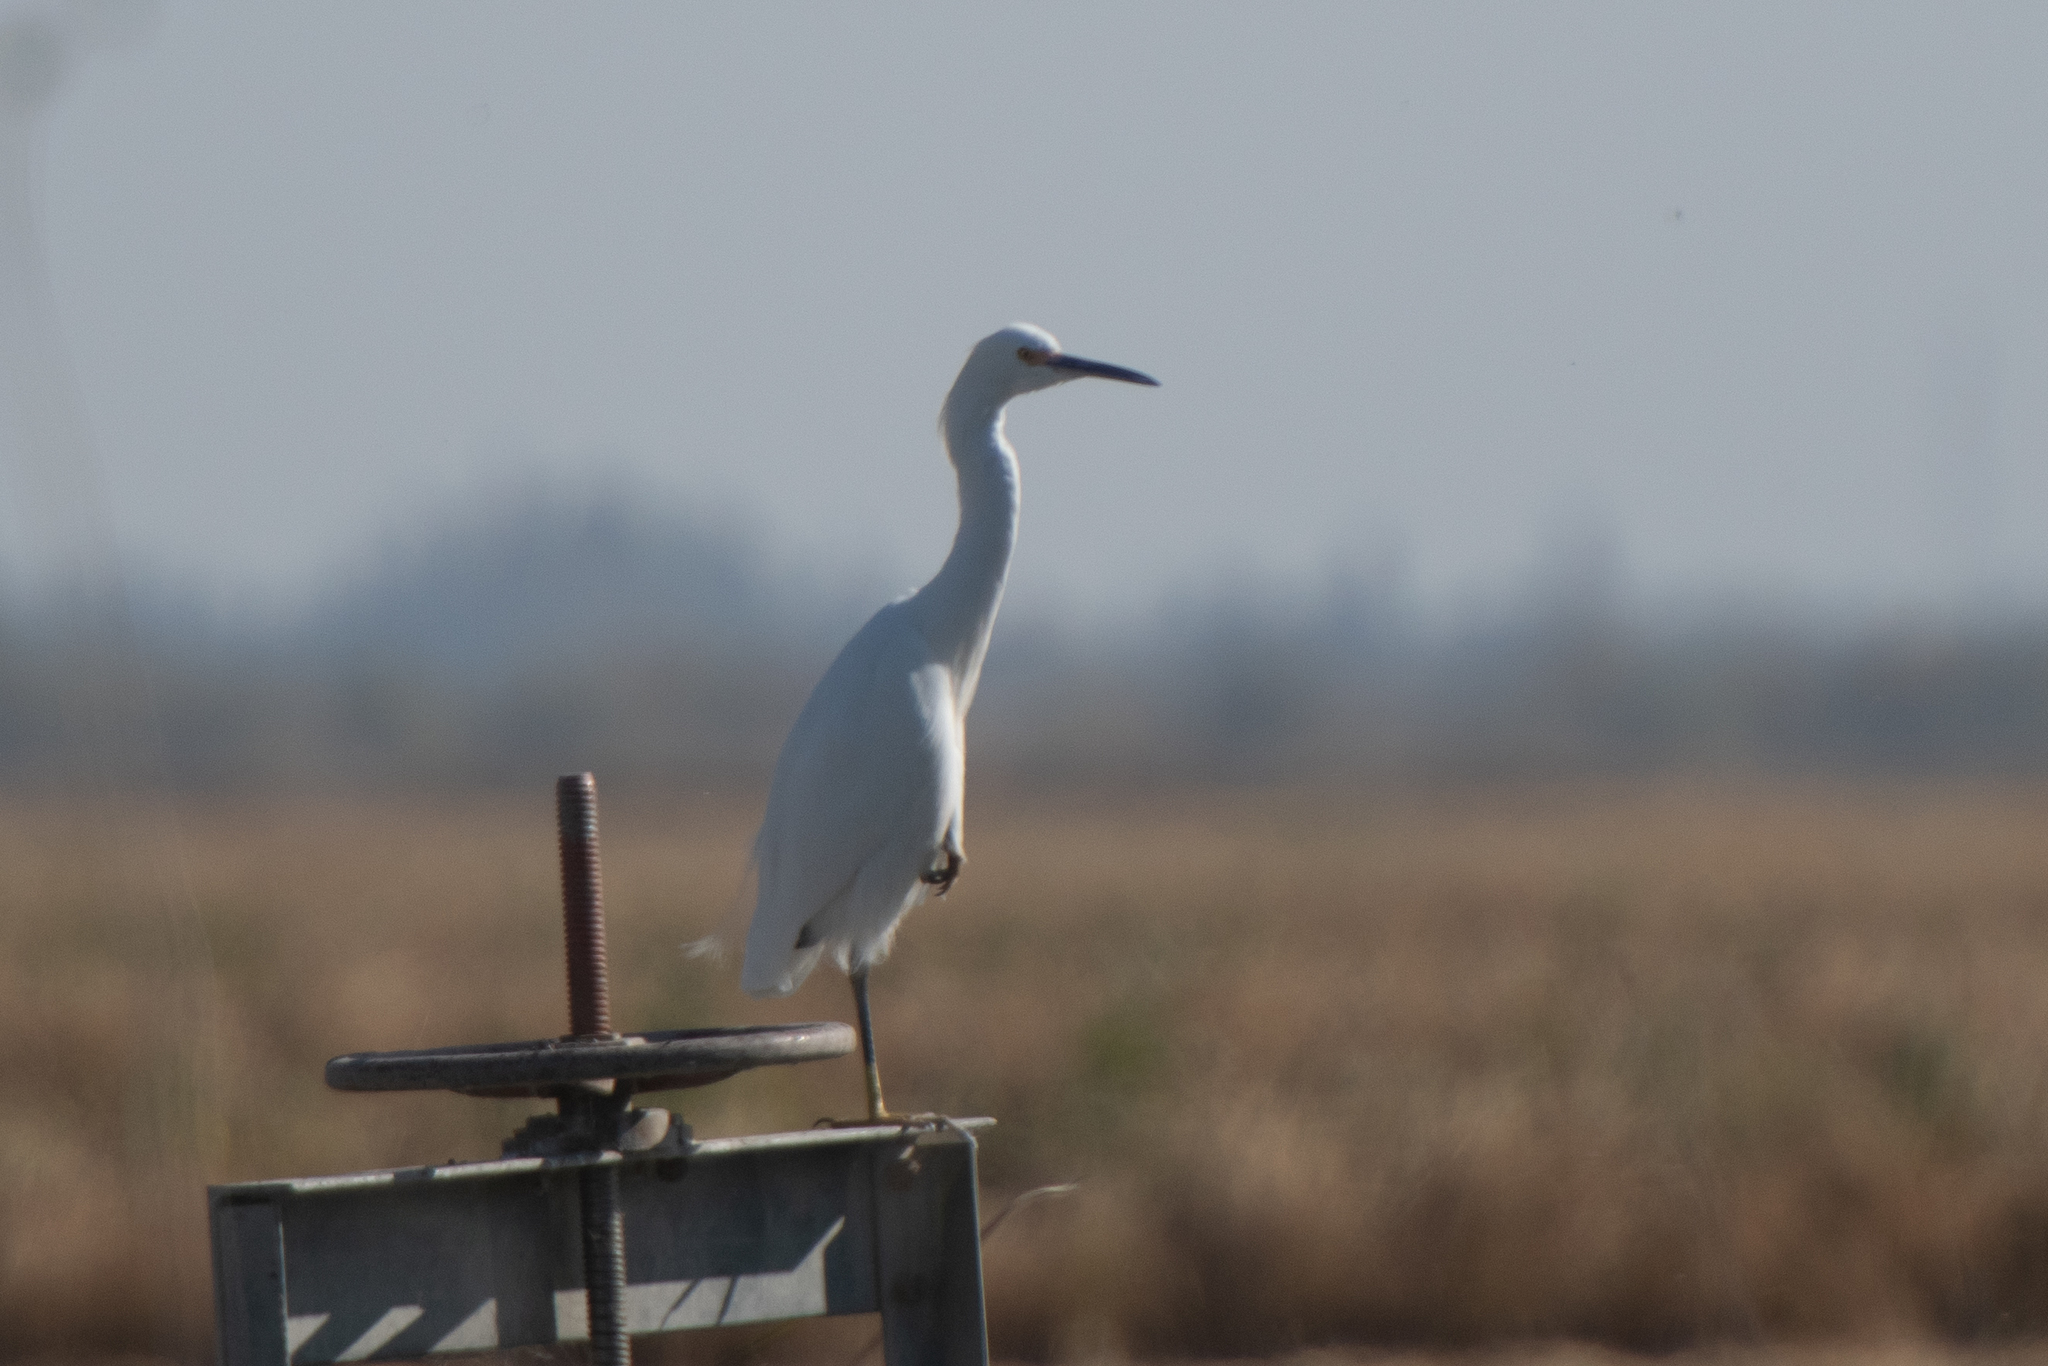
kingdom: Animalia
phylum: Chordata
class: Aves
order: Pelecaniformes
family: Ardeidae
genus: Egretta
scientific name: Egretta thula
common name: Snowy egret
